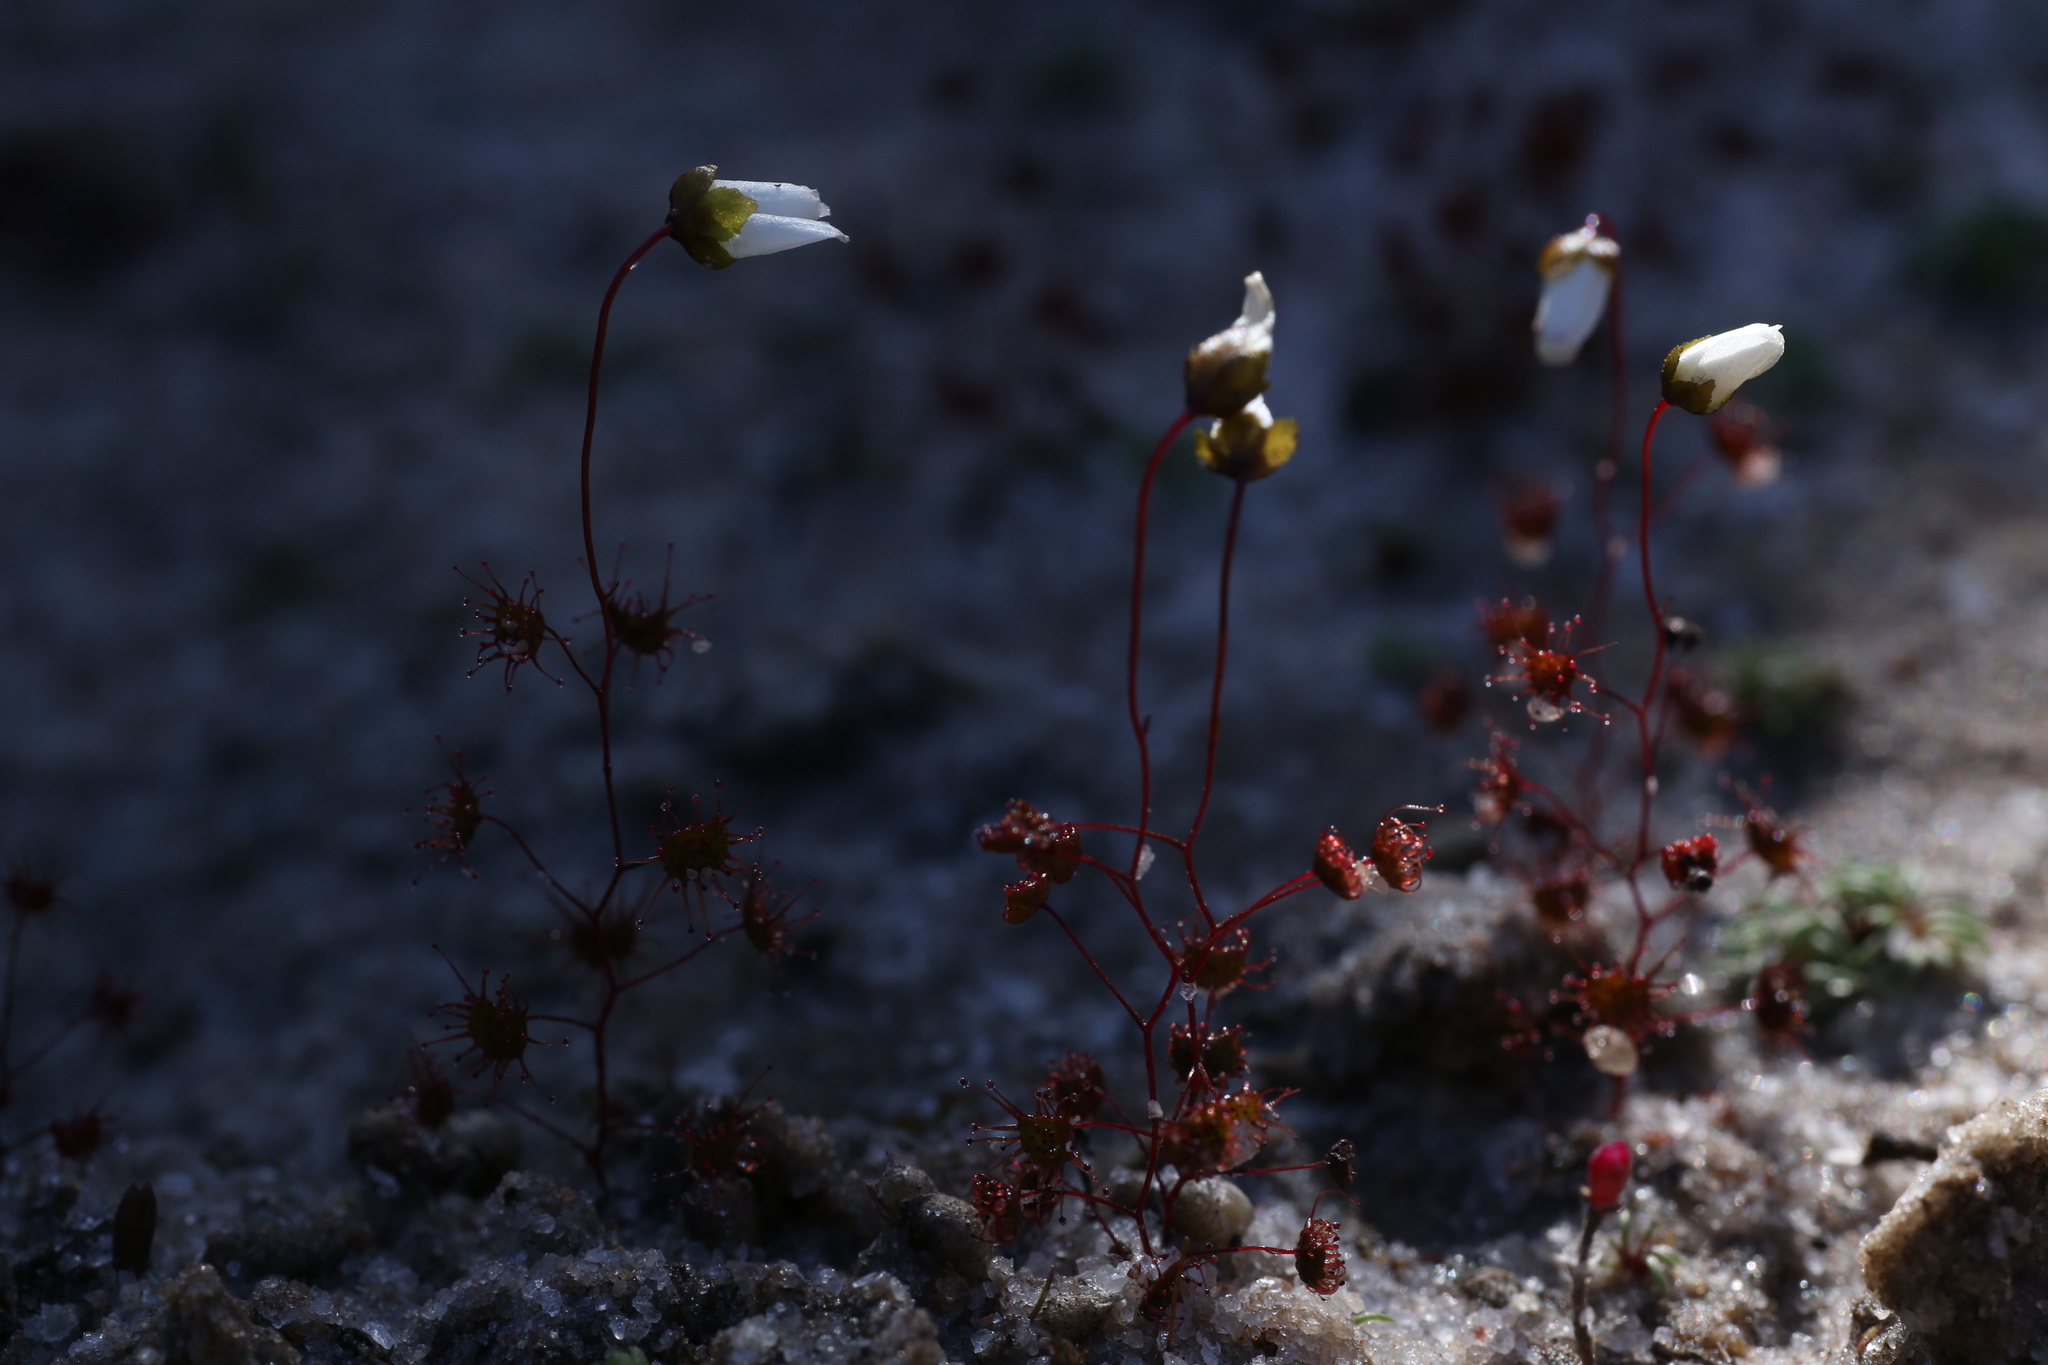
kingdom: Plantae
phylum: Tracheophyta
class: Magnoliopsida
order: Caryophyllales
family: Droseraceae
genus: Drosera
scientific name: Drosera salina
